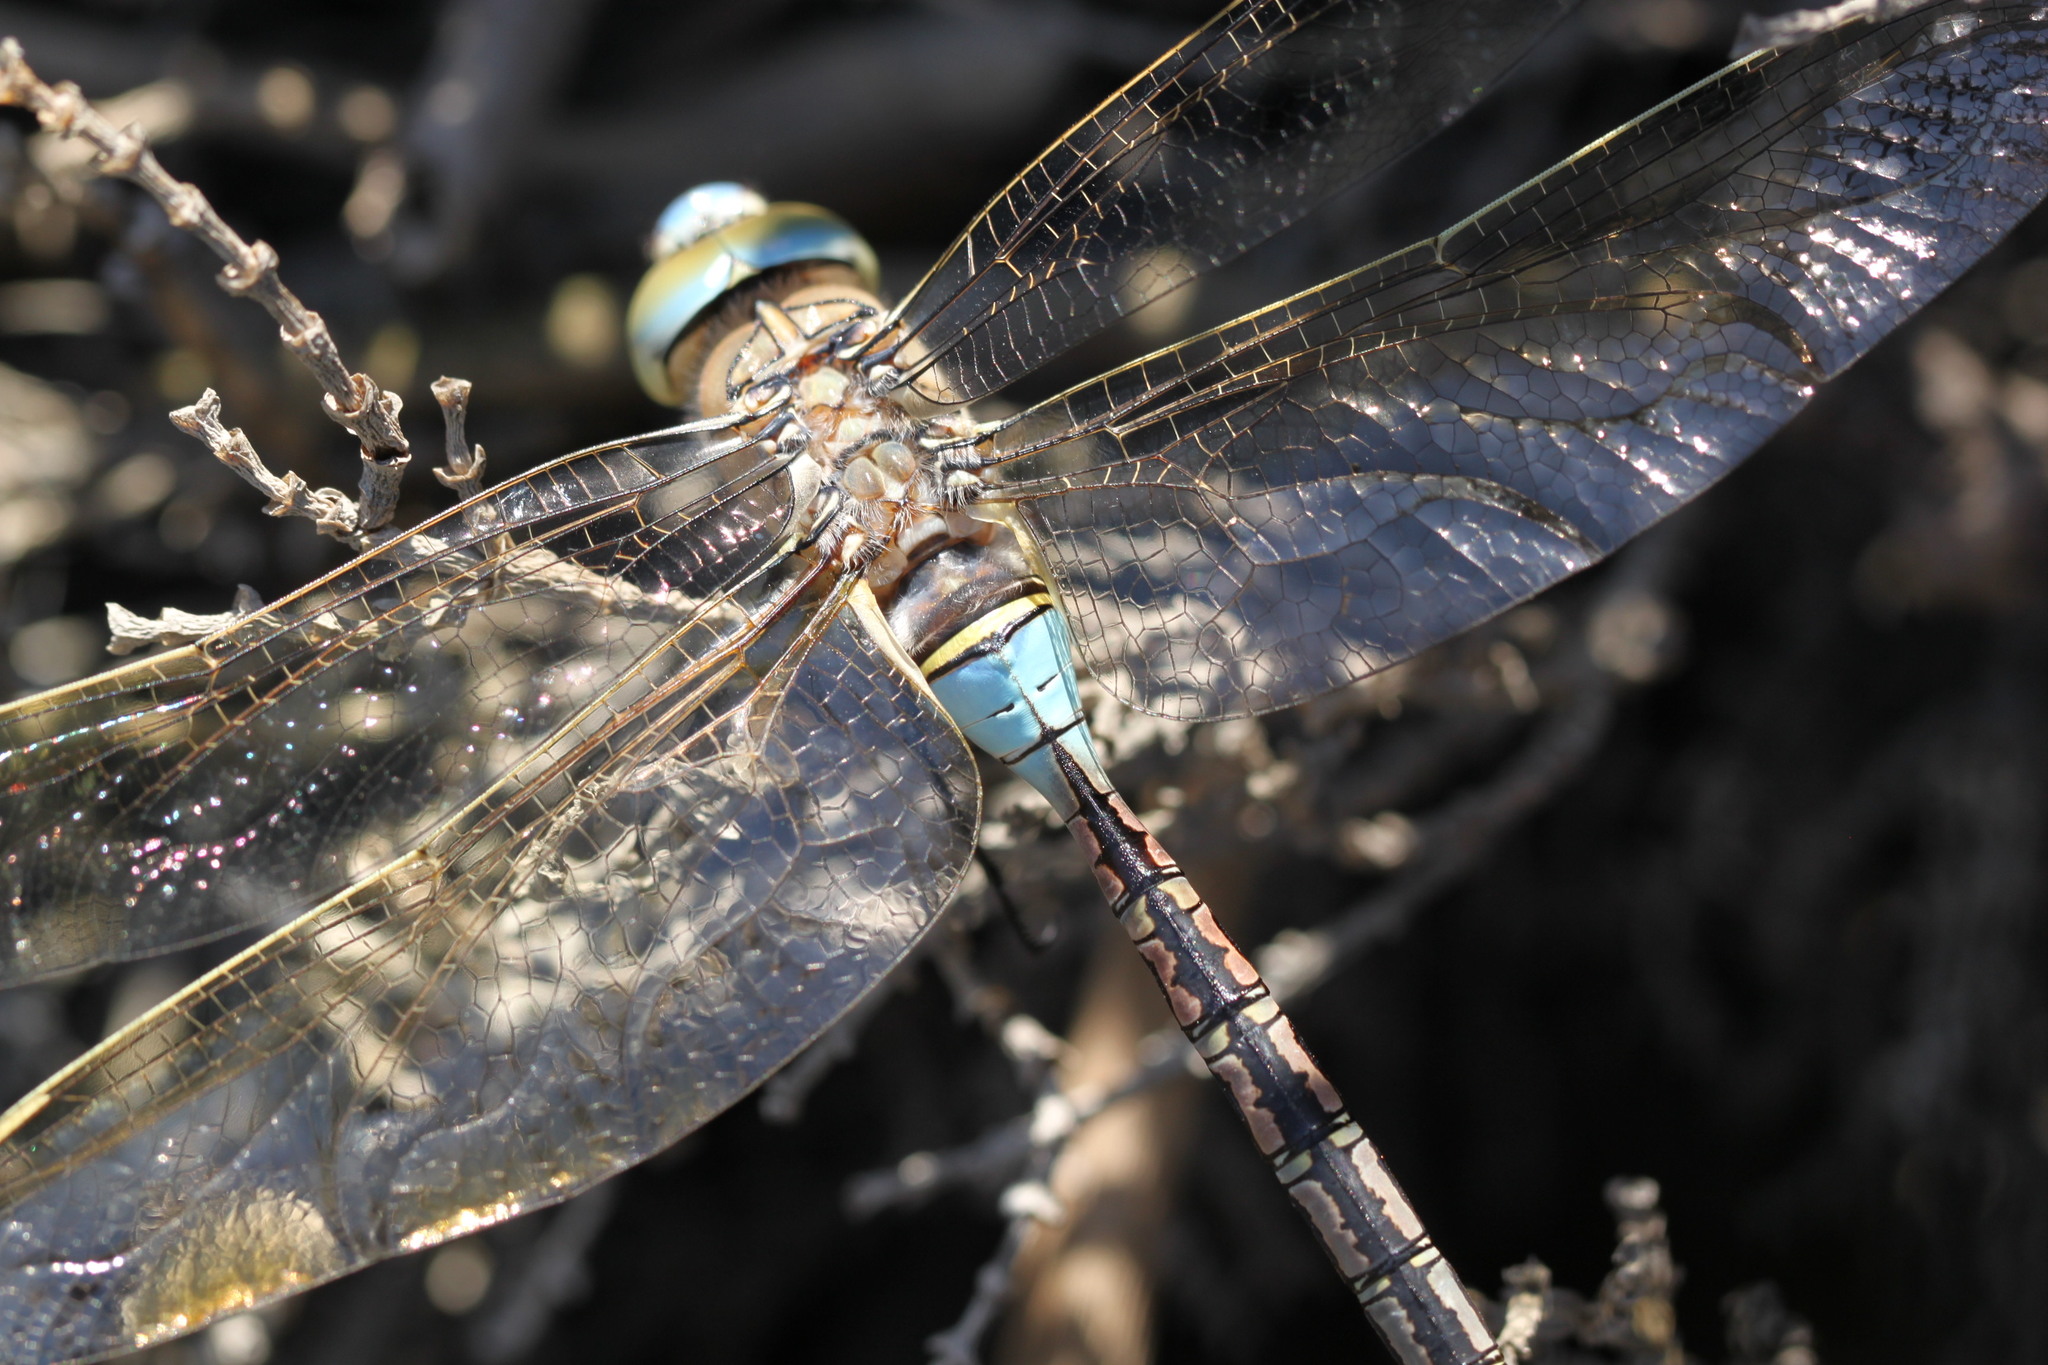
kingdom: Animalia
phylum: Arthropoda
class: Insecta
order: Odonata
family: Aeshnidae
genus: Anax
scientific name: Anax parthenope
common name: Lesser emperor
